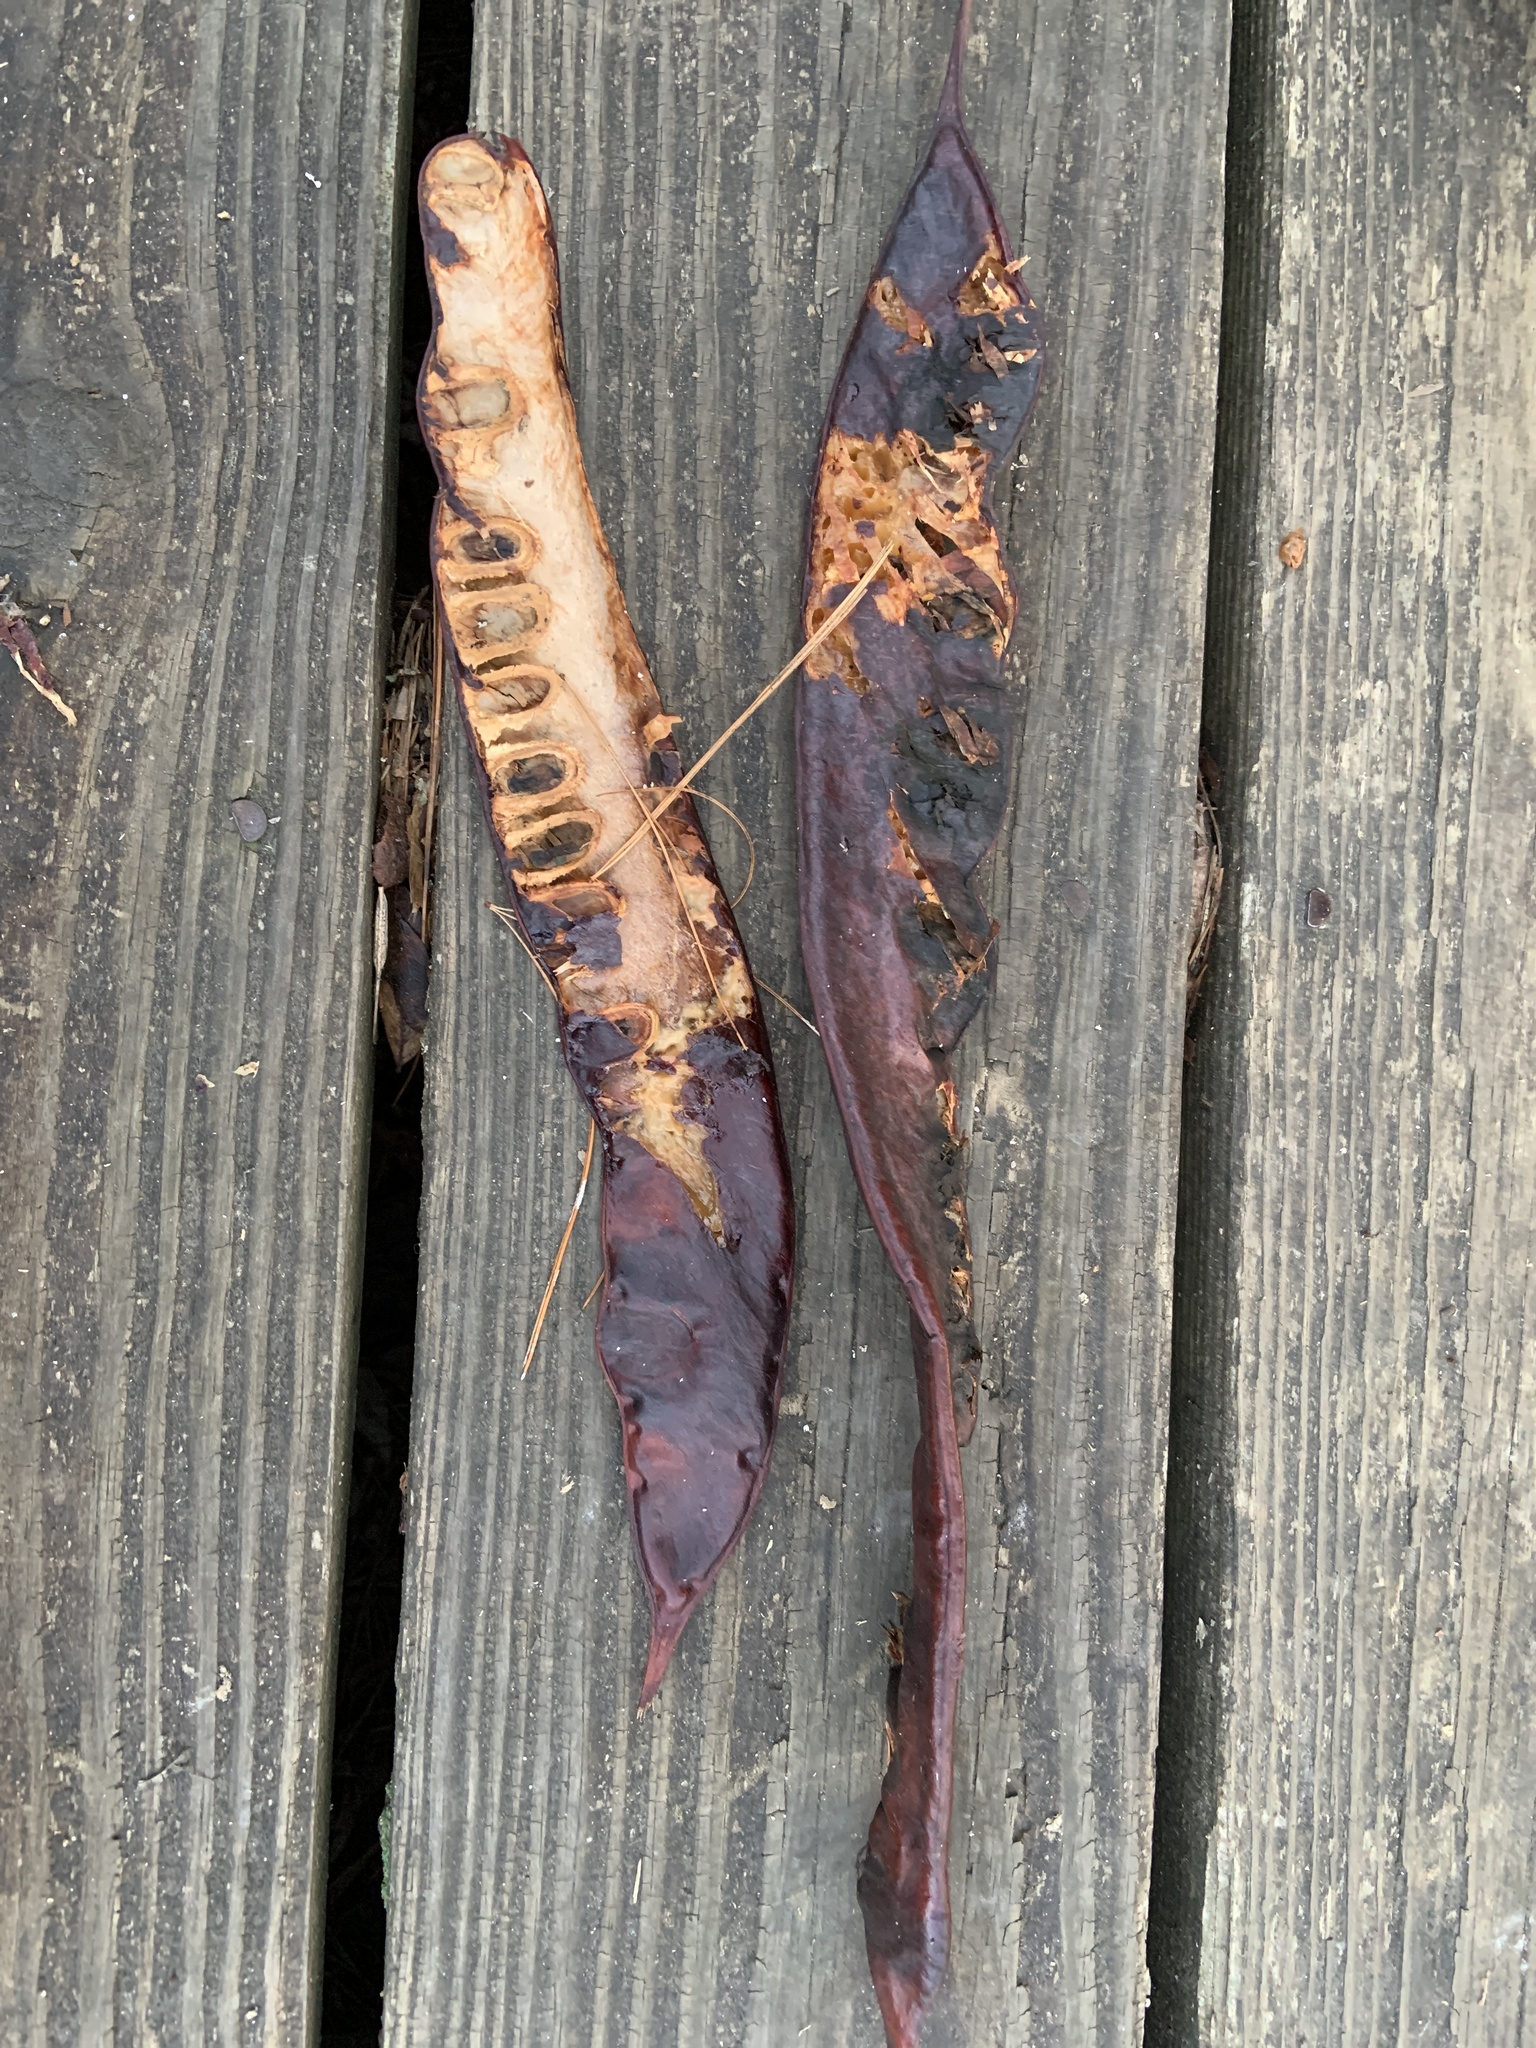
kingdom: Plantae
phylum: Tracheophyta
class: Magnoliopsida
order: Fabales
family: Fabaceae
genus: Gleditsia
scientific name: Gleditsia triacanthos
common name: Common honeylocust
